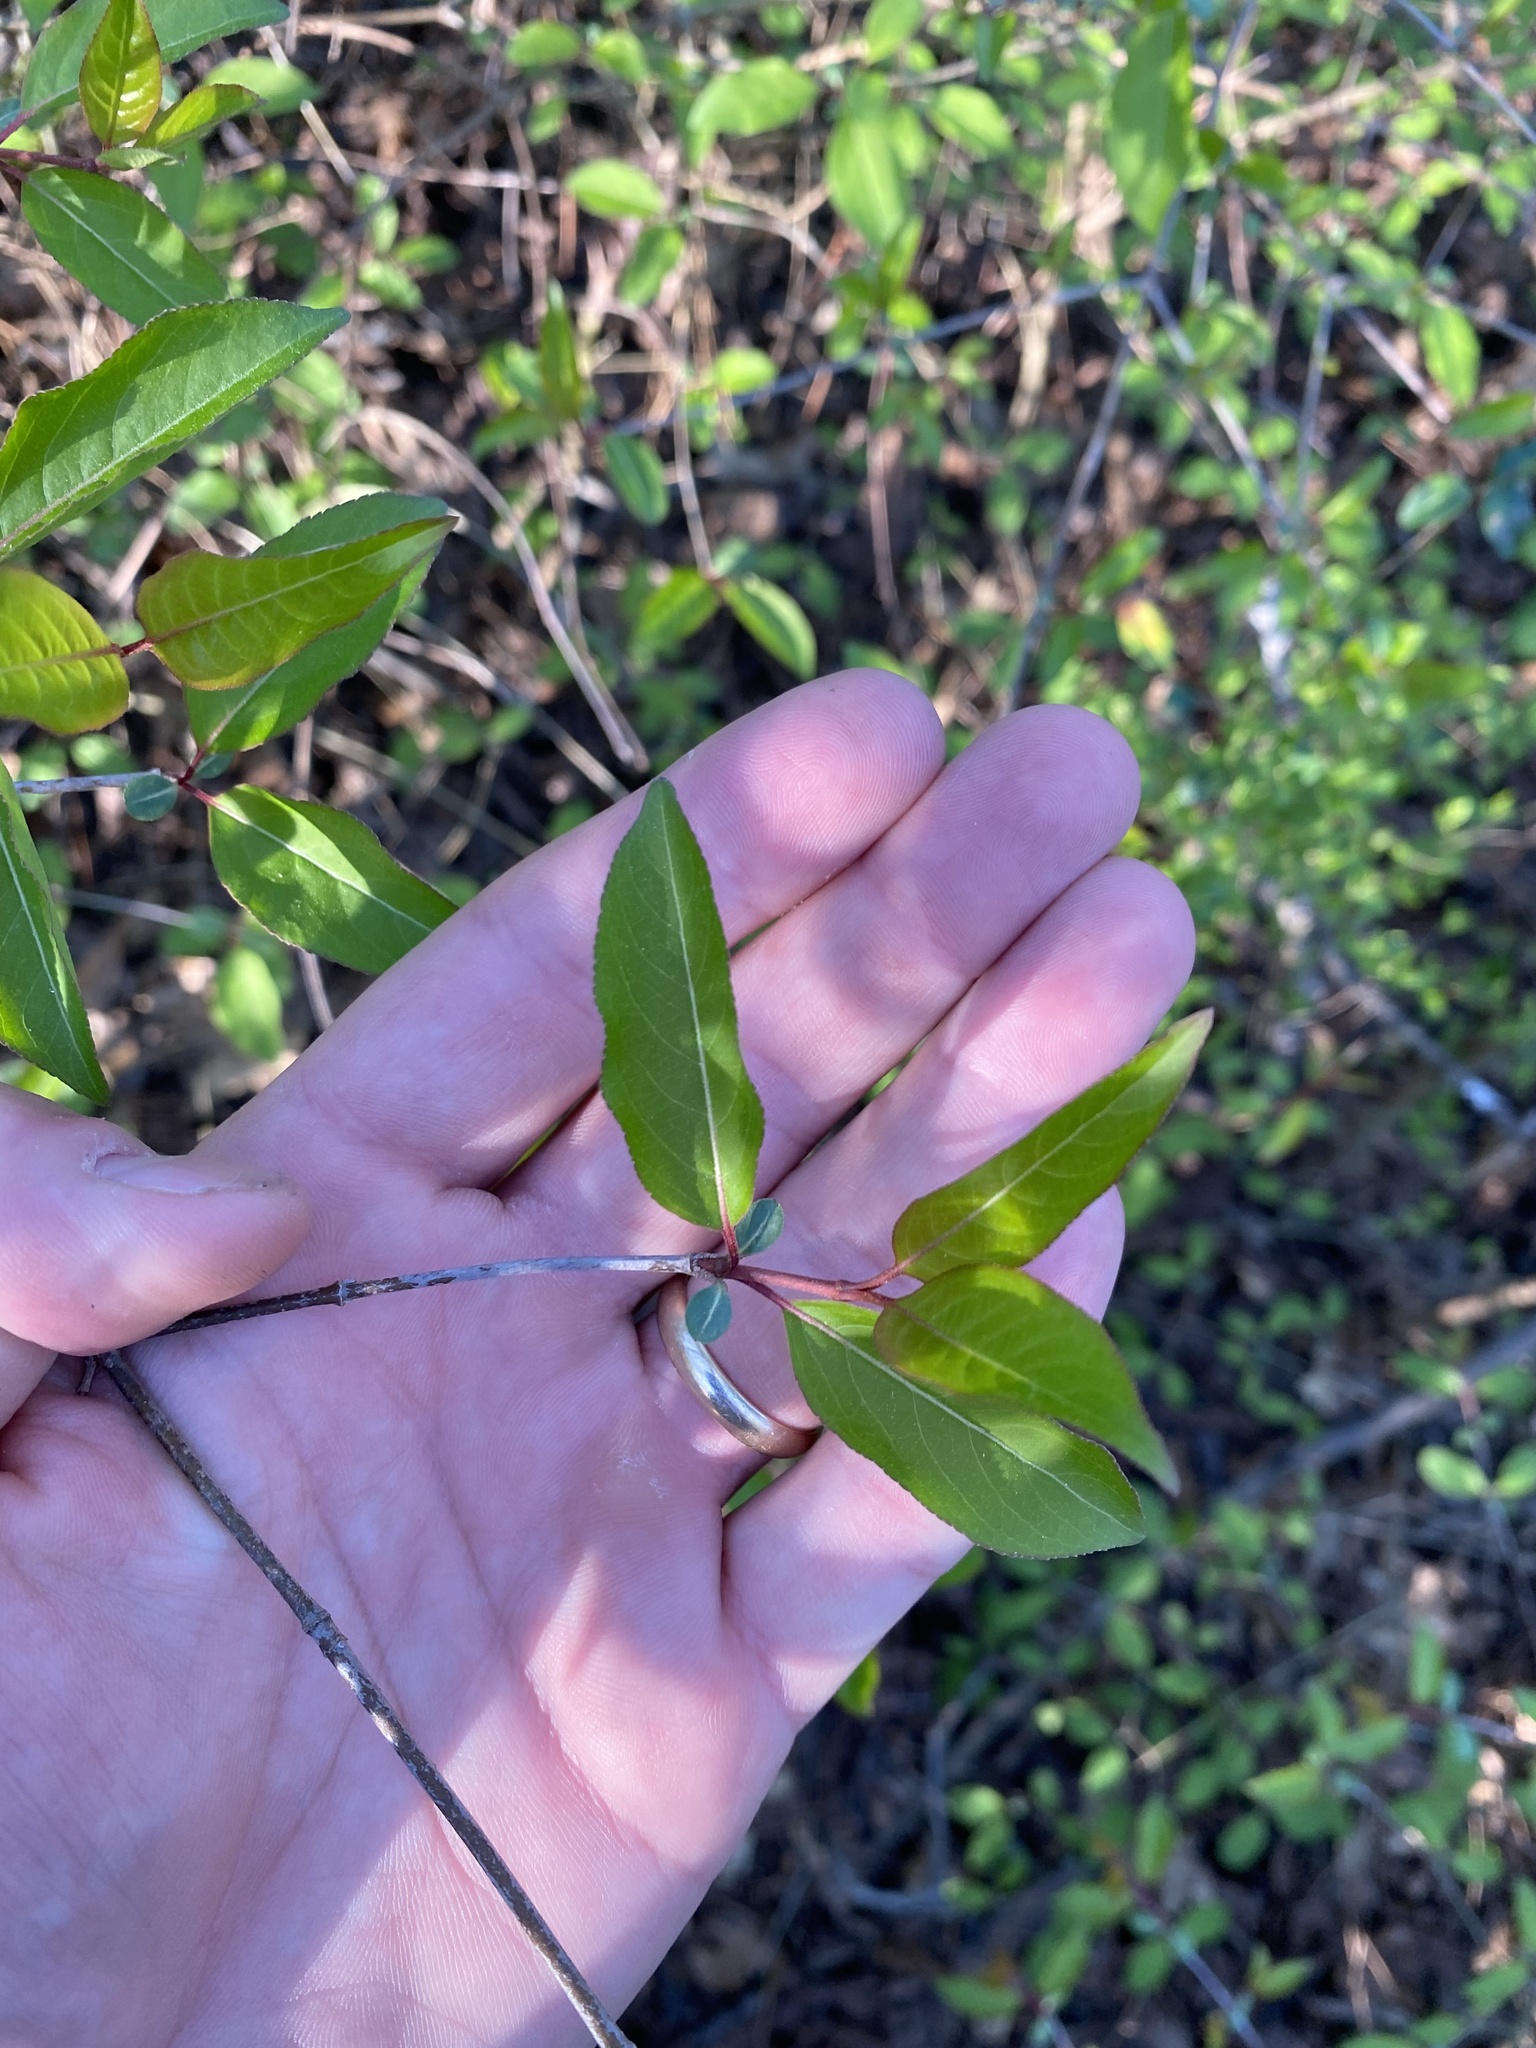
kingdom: Plantae
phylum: Tracheophyta
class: Magnoliopsida
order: Dipsacales
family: Viburnaceae
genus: Viburnum
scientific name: Viburnum prunifolium
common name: Black haw
